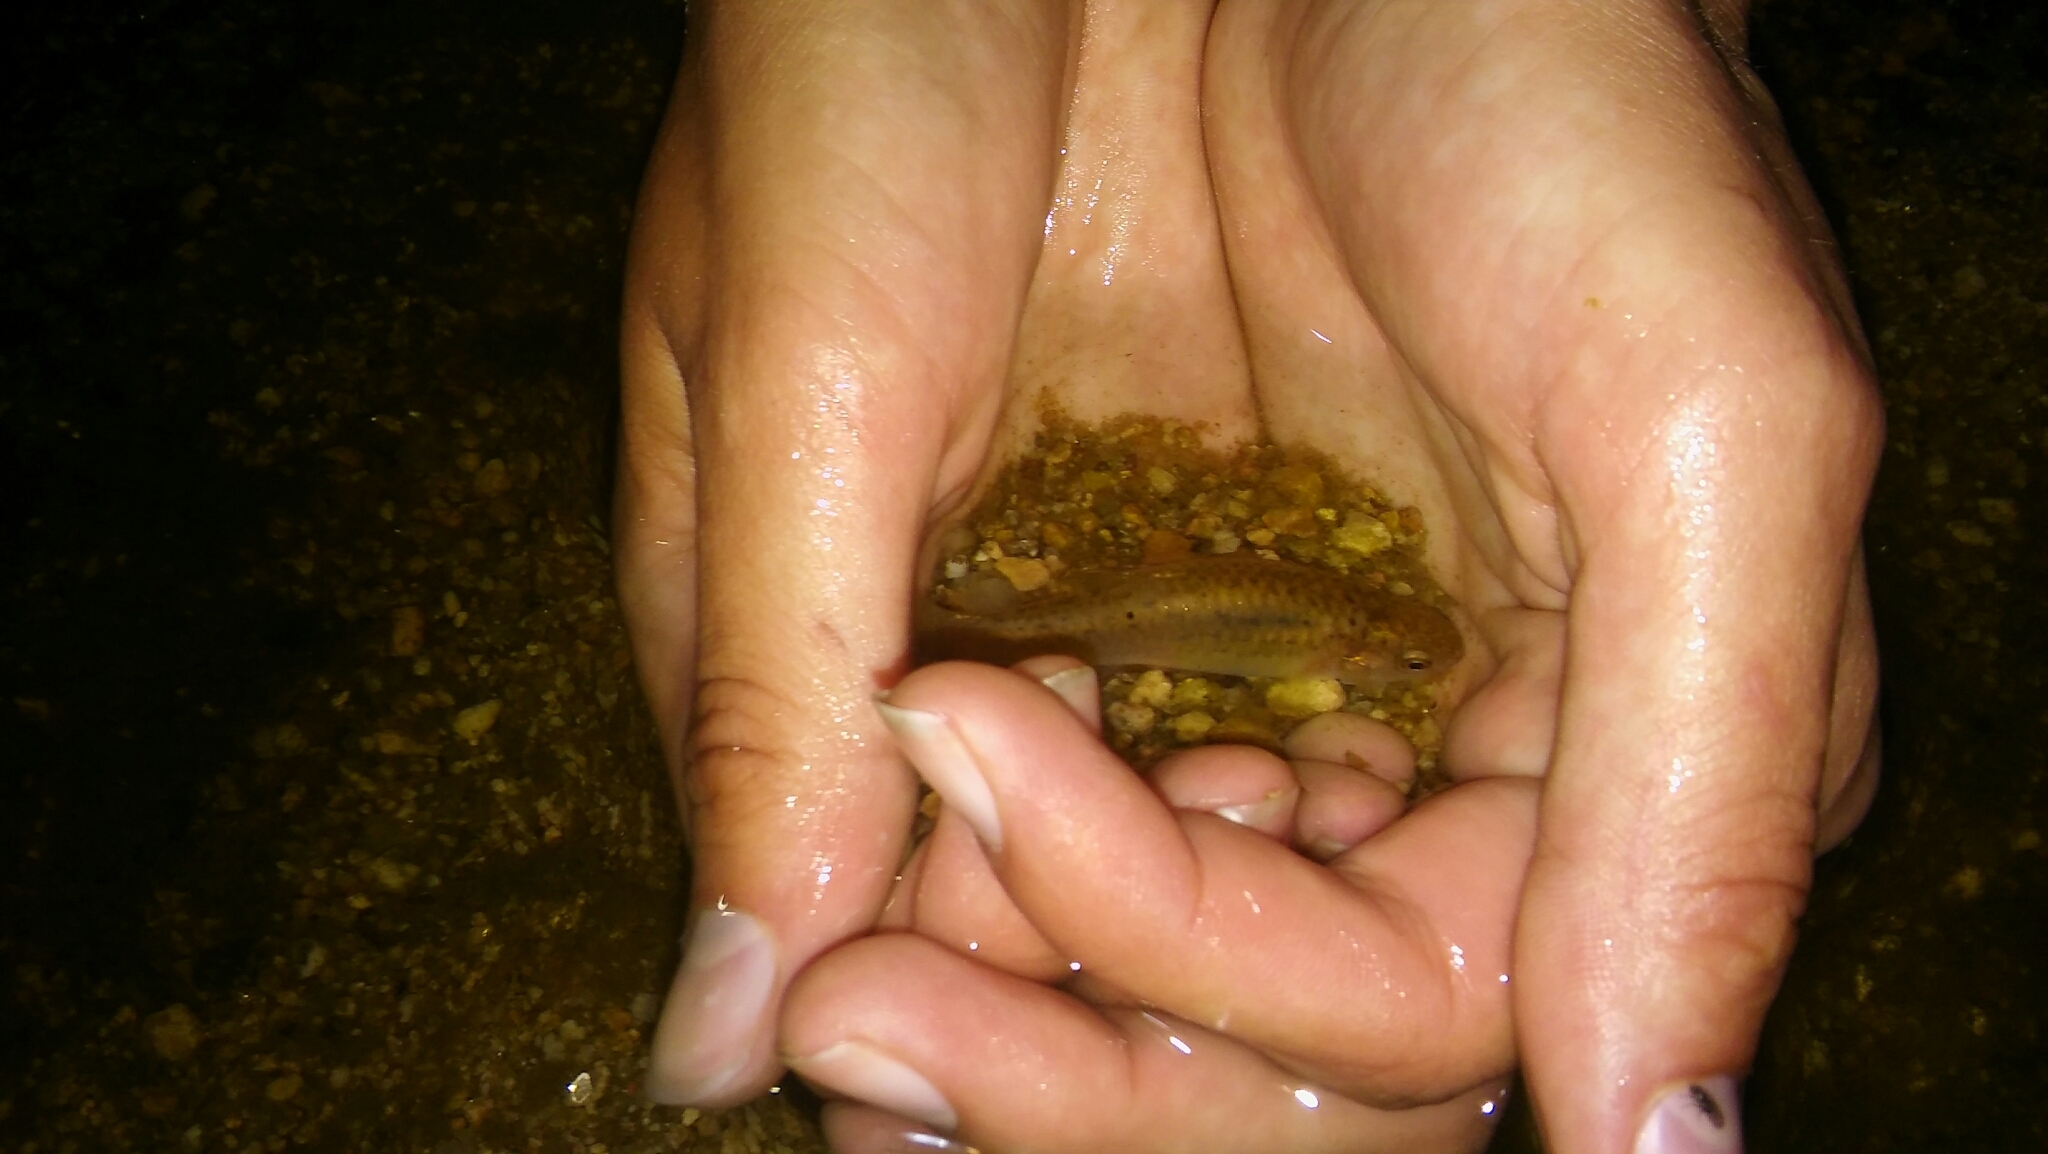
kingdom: Animalia
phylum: Chordata
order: Cyprinodontiformes
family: Anablepidae
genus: Jenynsia
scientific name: Jenynsia lineata
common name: Onesided livebearer
